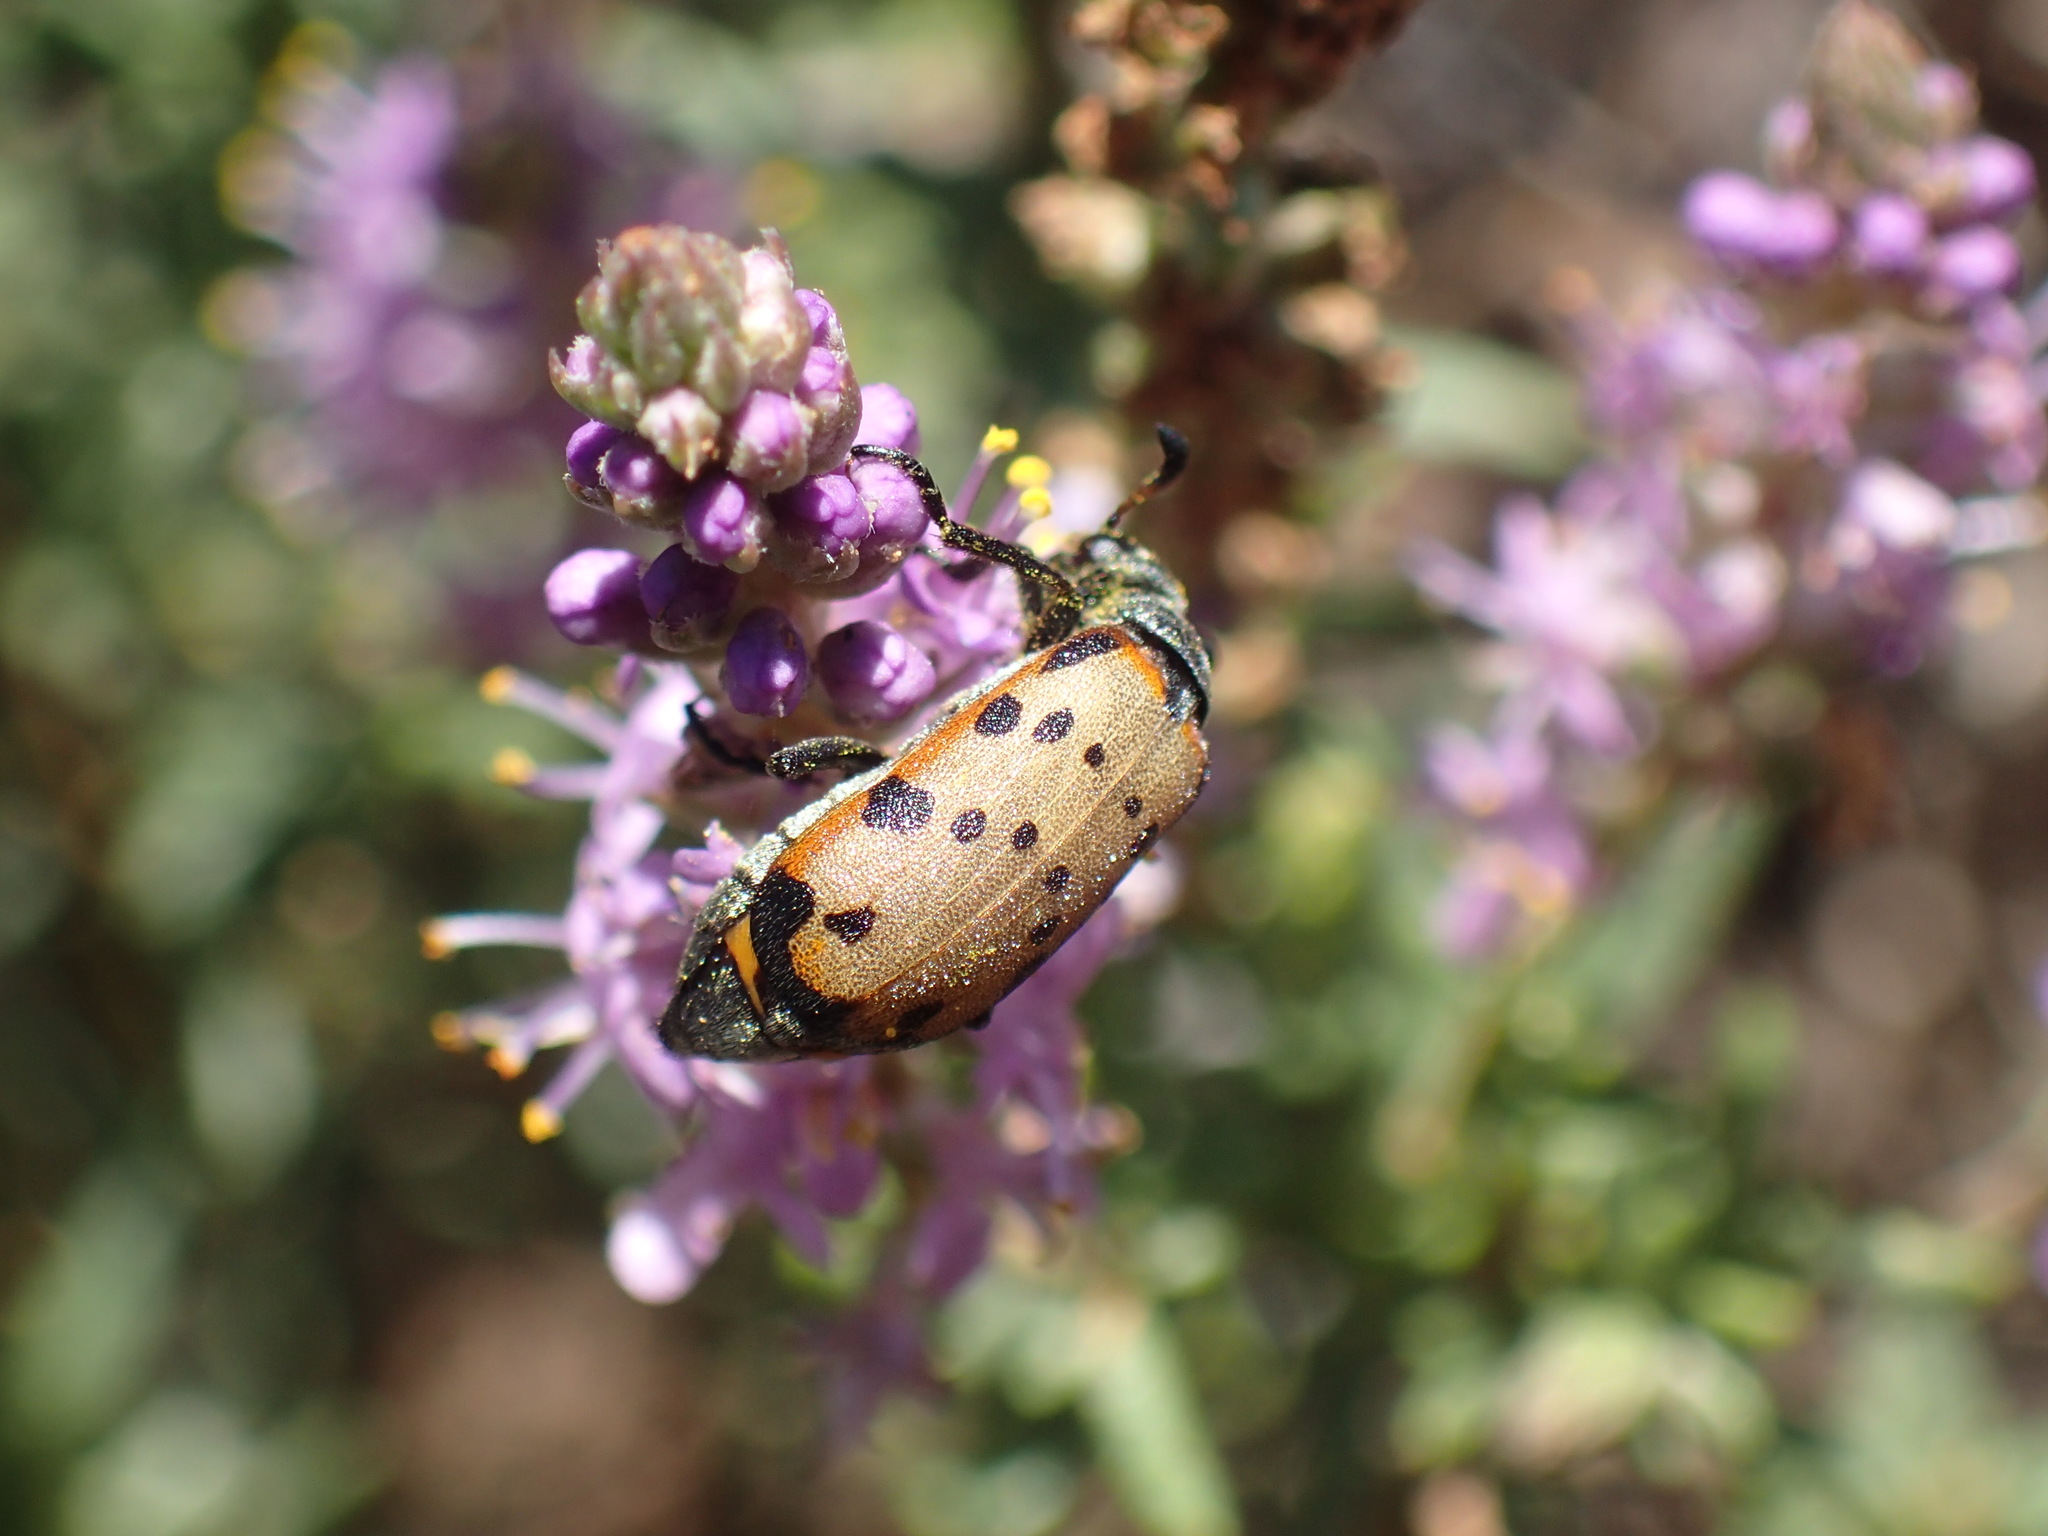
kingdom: Animalia
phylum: Arthropoda
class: Insecta
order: Coleoptera
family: Meloidae
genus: Hycleus
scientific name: Hycleus transvaalicus
